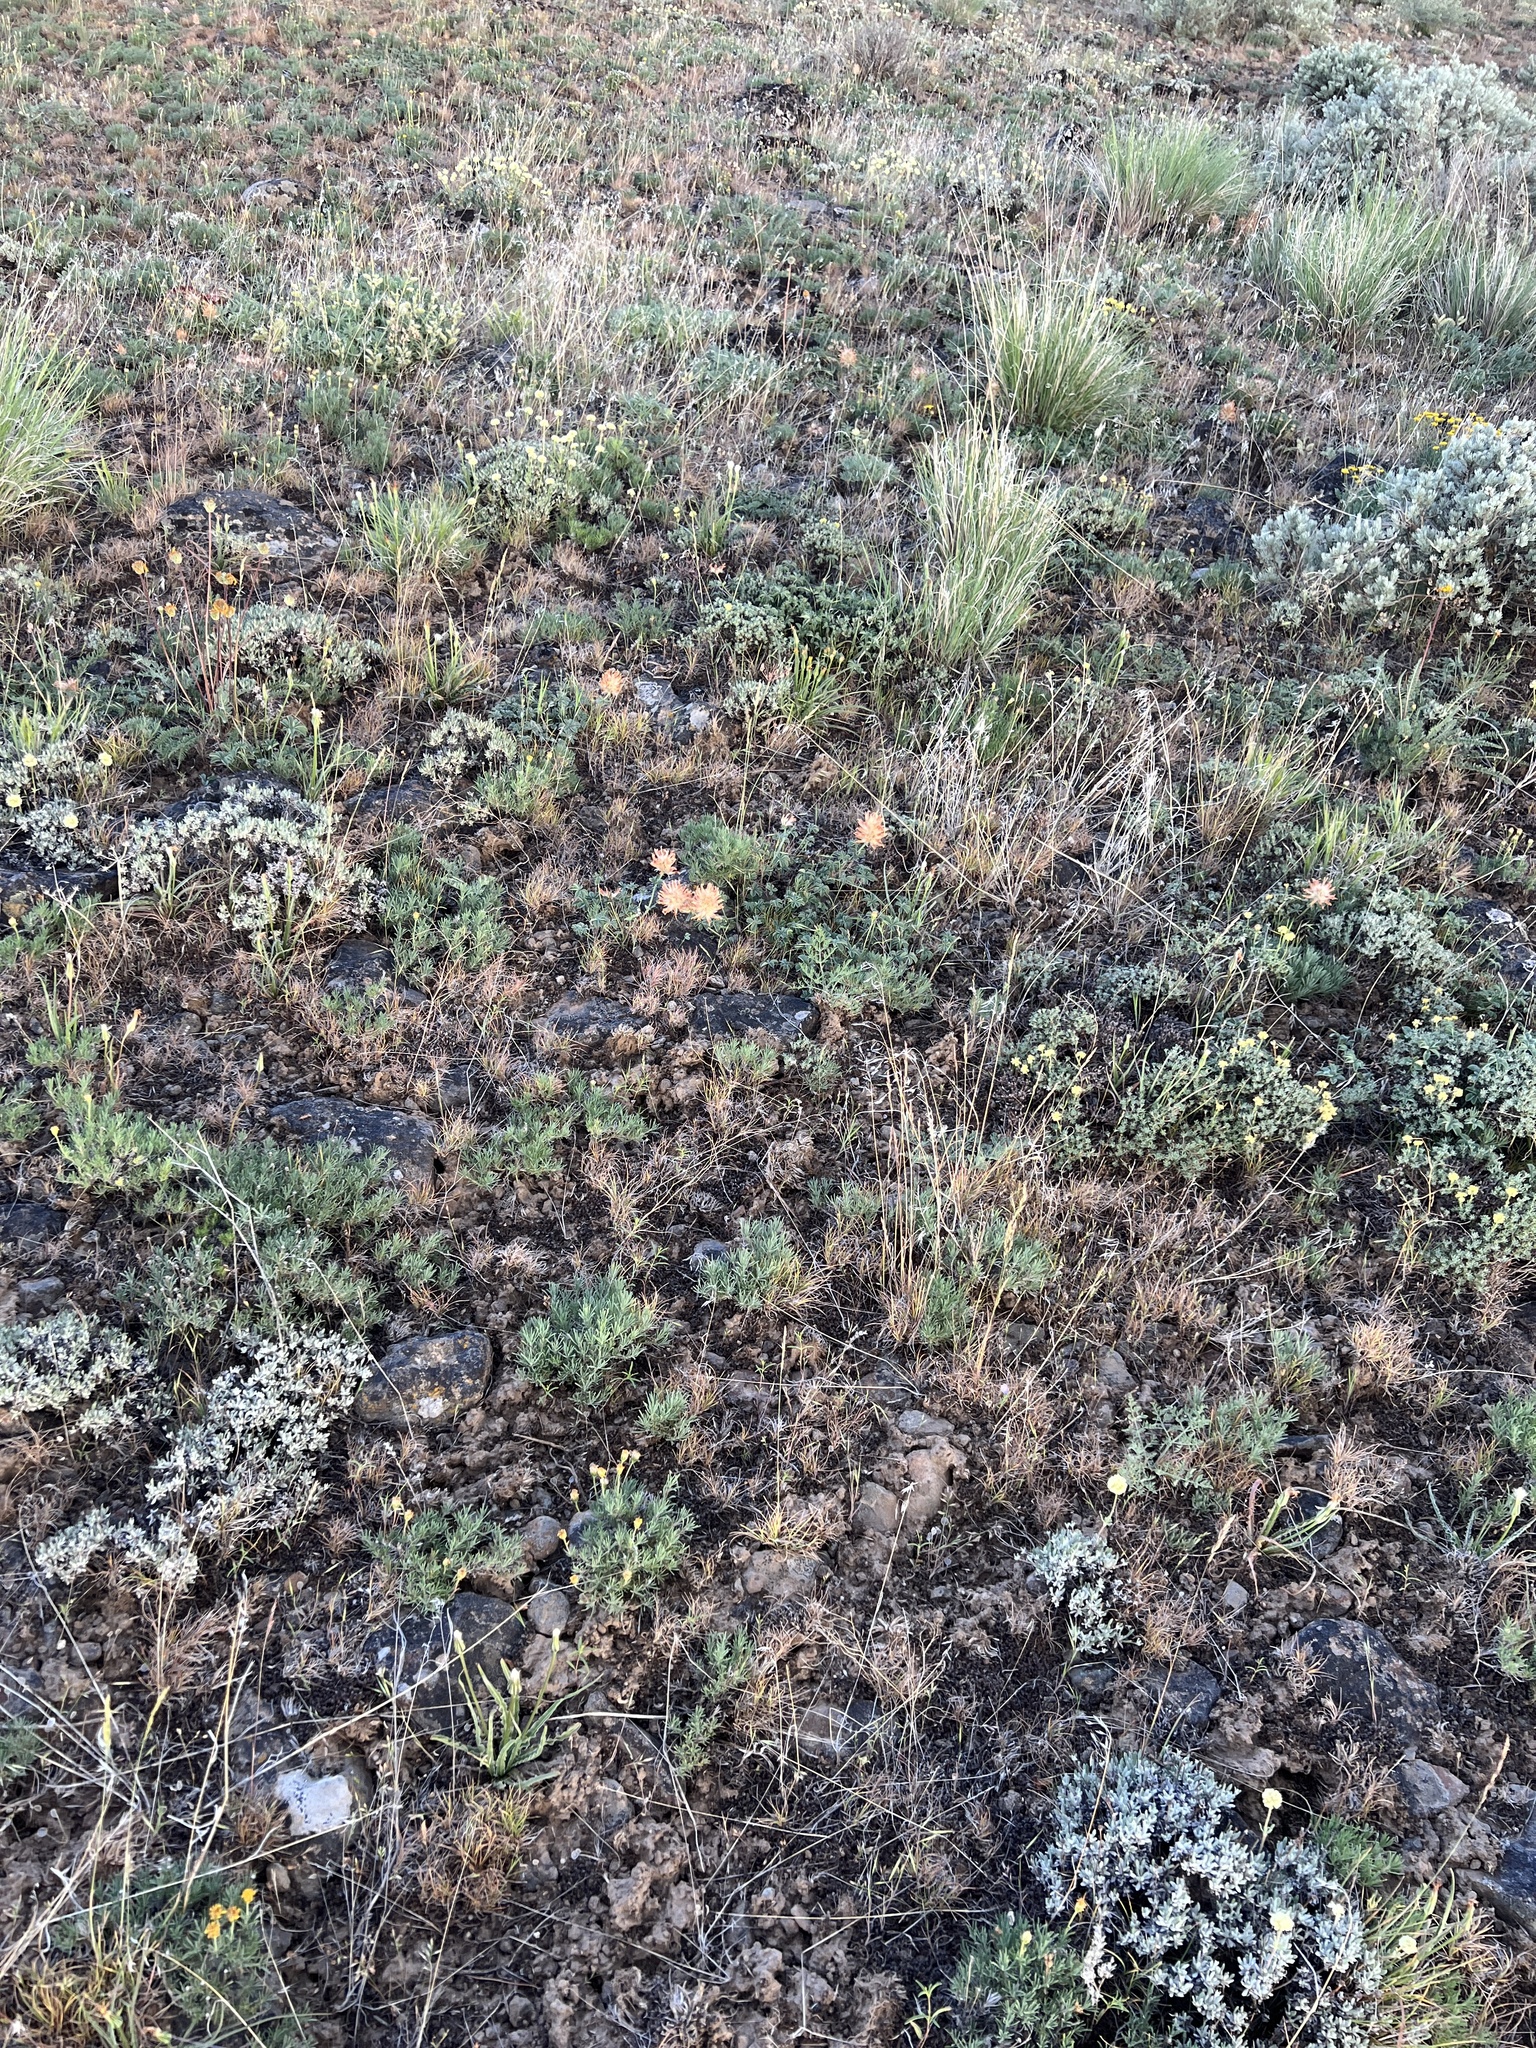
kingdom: Plantae
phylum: Tracheophyta
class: Magnoliopsida
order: Fabales
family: Fabaceae
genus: Trifolium
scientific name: Trifolium macrocephalum
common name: Large-head clover
